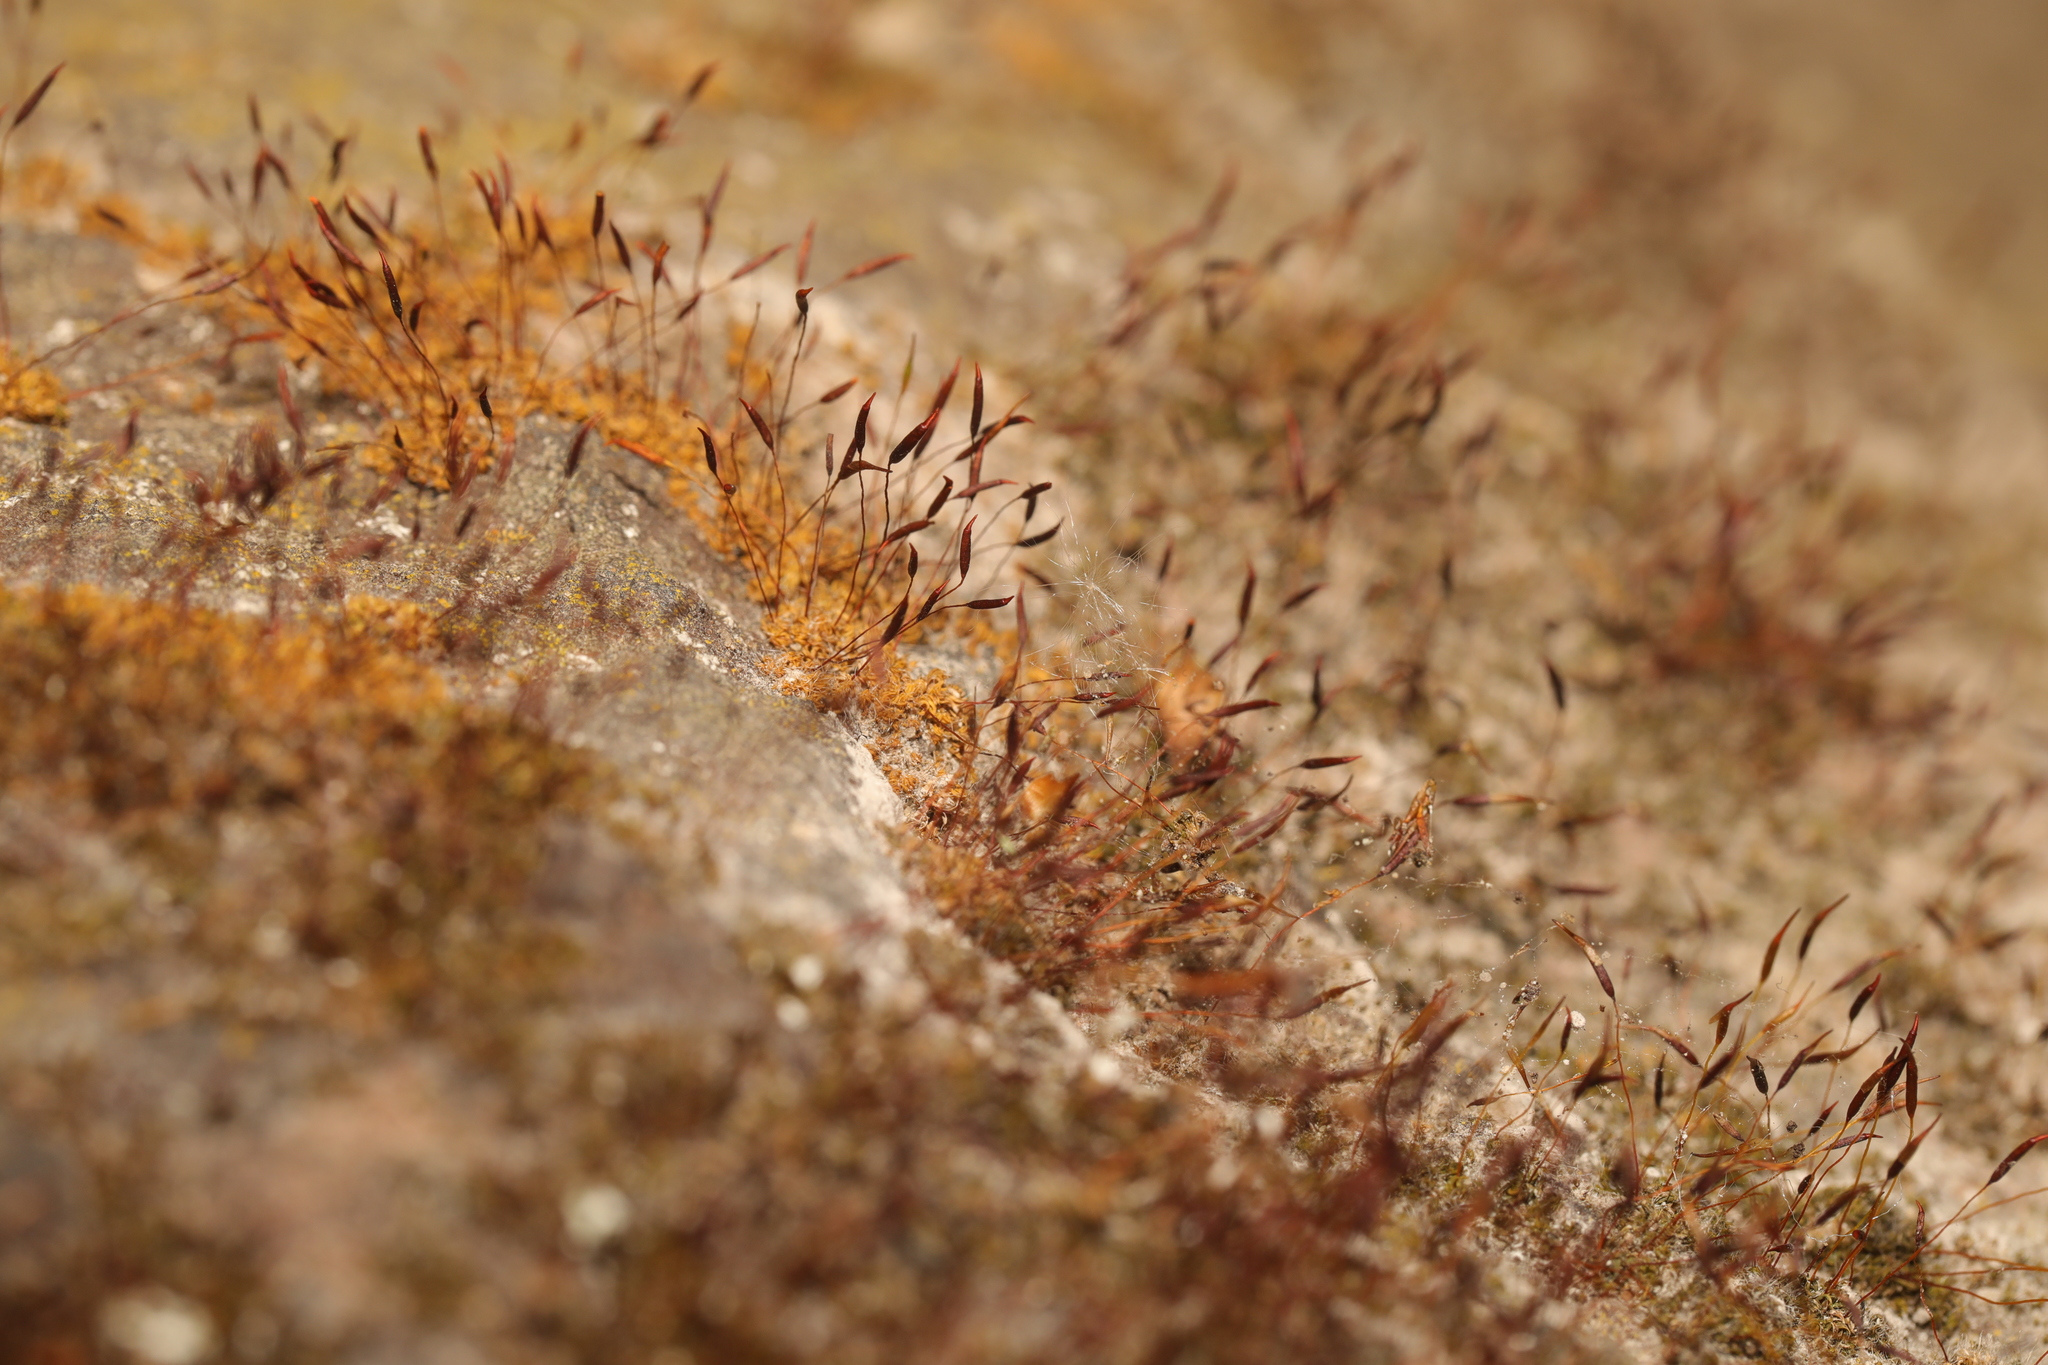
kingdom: Plantae
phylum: Bryophyta
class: Bryopsida
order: Pottiales
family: Pottiaceae
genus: Tortula
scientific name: Tortula muralis
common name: Wall screw-moss
